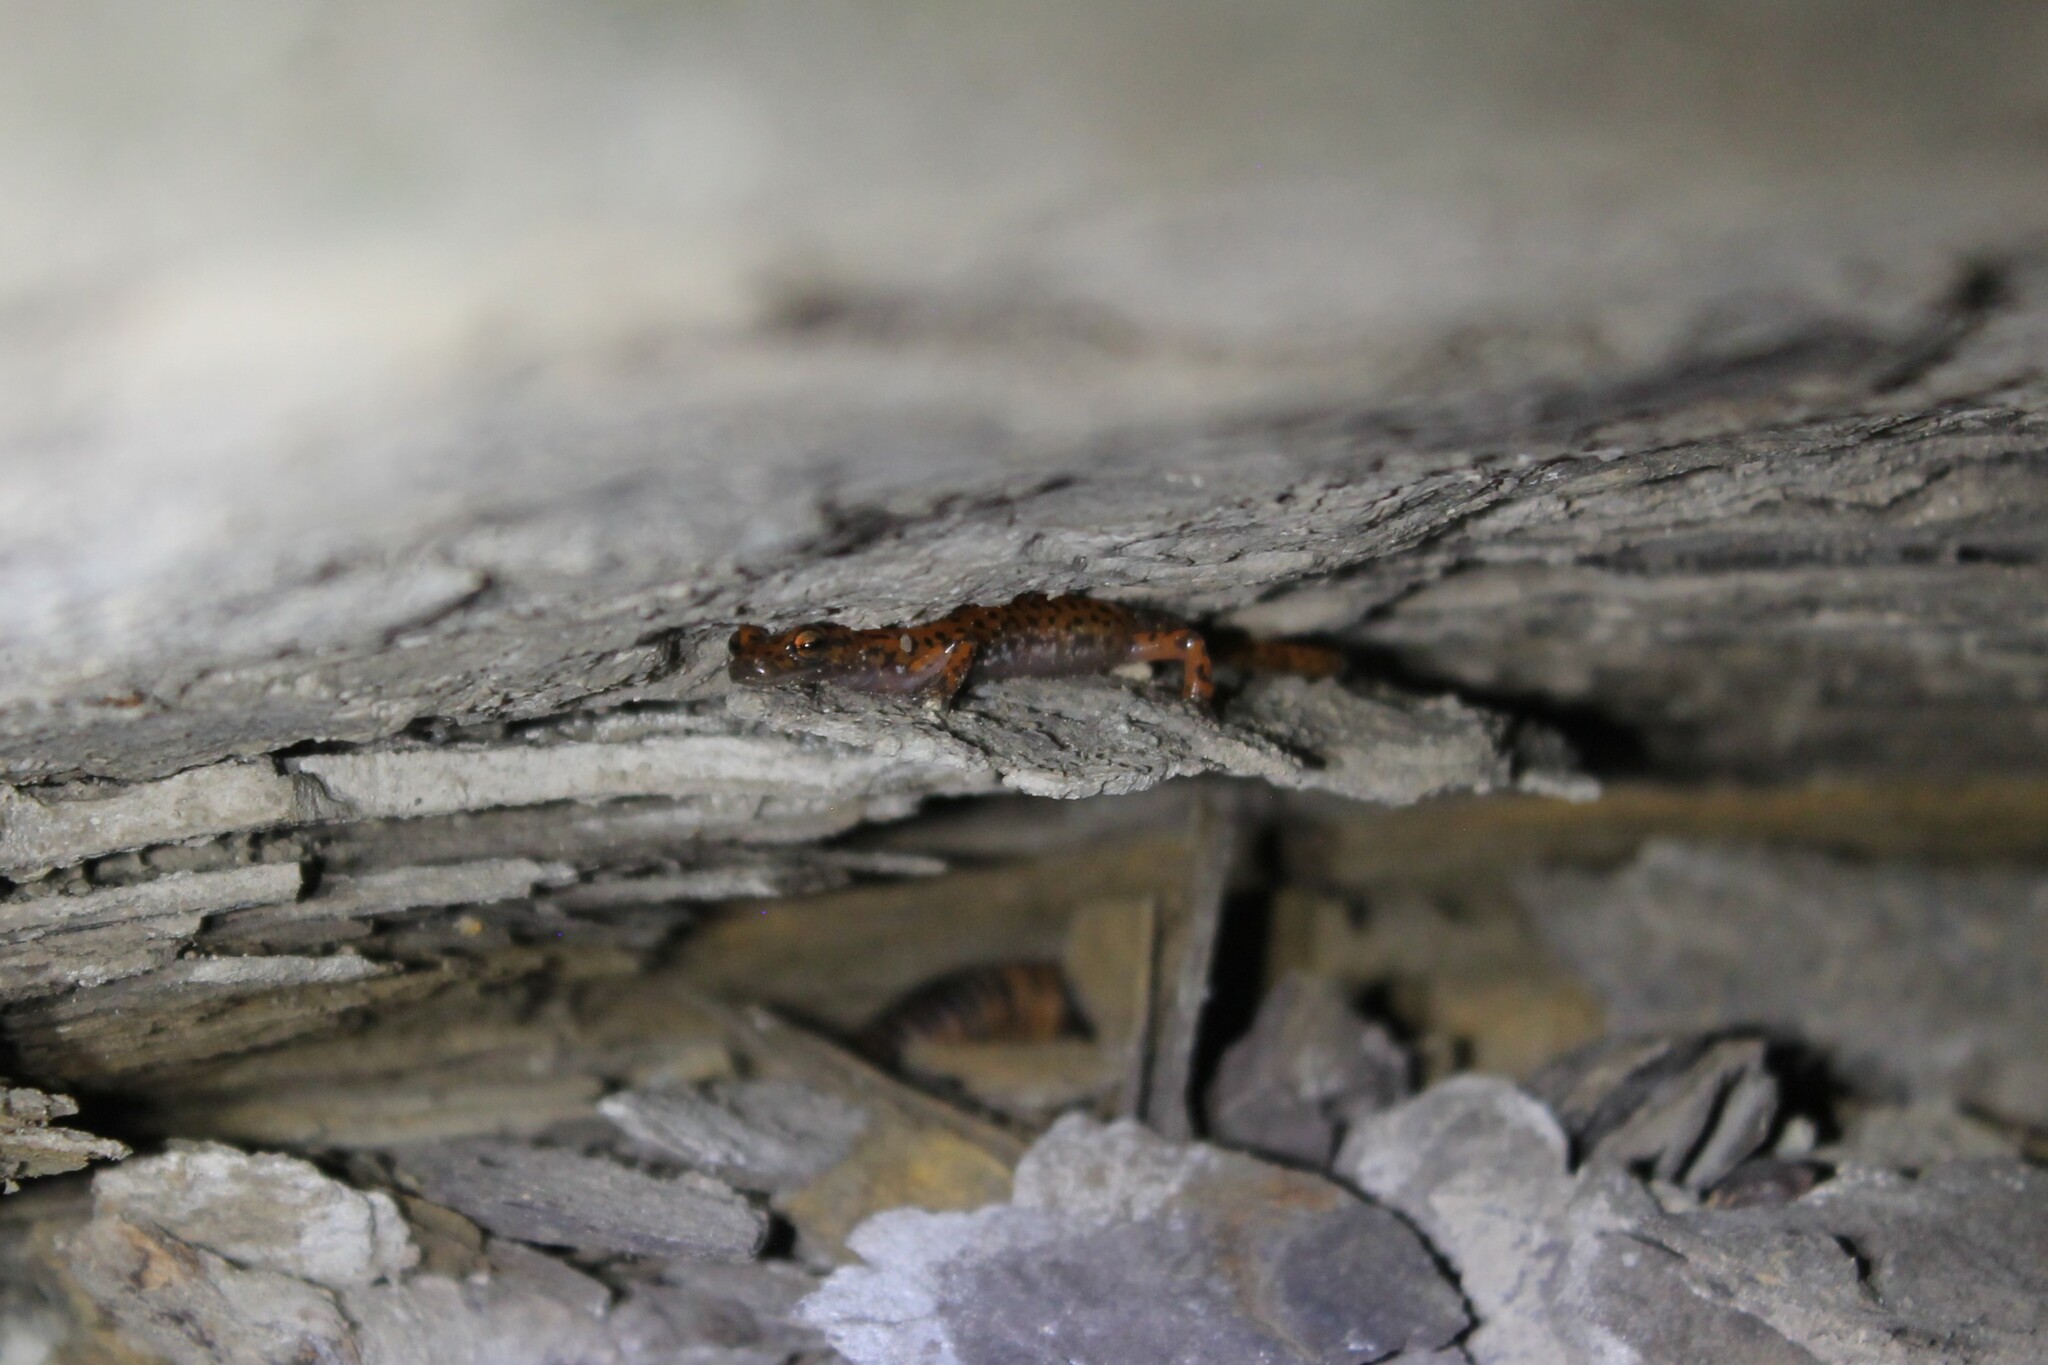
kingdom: Animalia
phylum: Chordata
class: Amphibia
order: Caudata
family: Plethodontidae
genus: Eurycea
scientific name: Eurycea lucifuga
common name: Cave salamander
